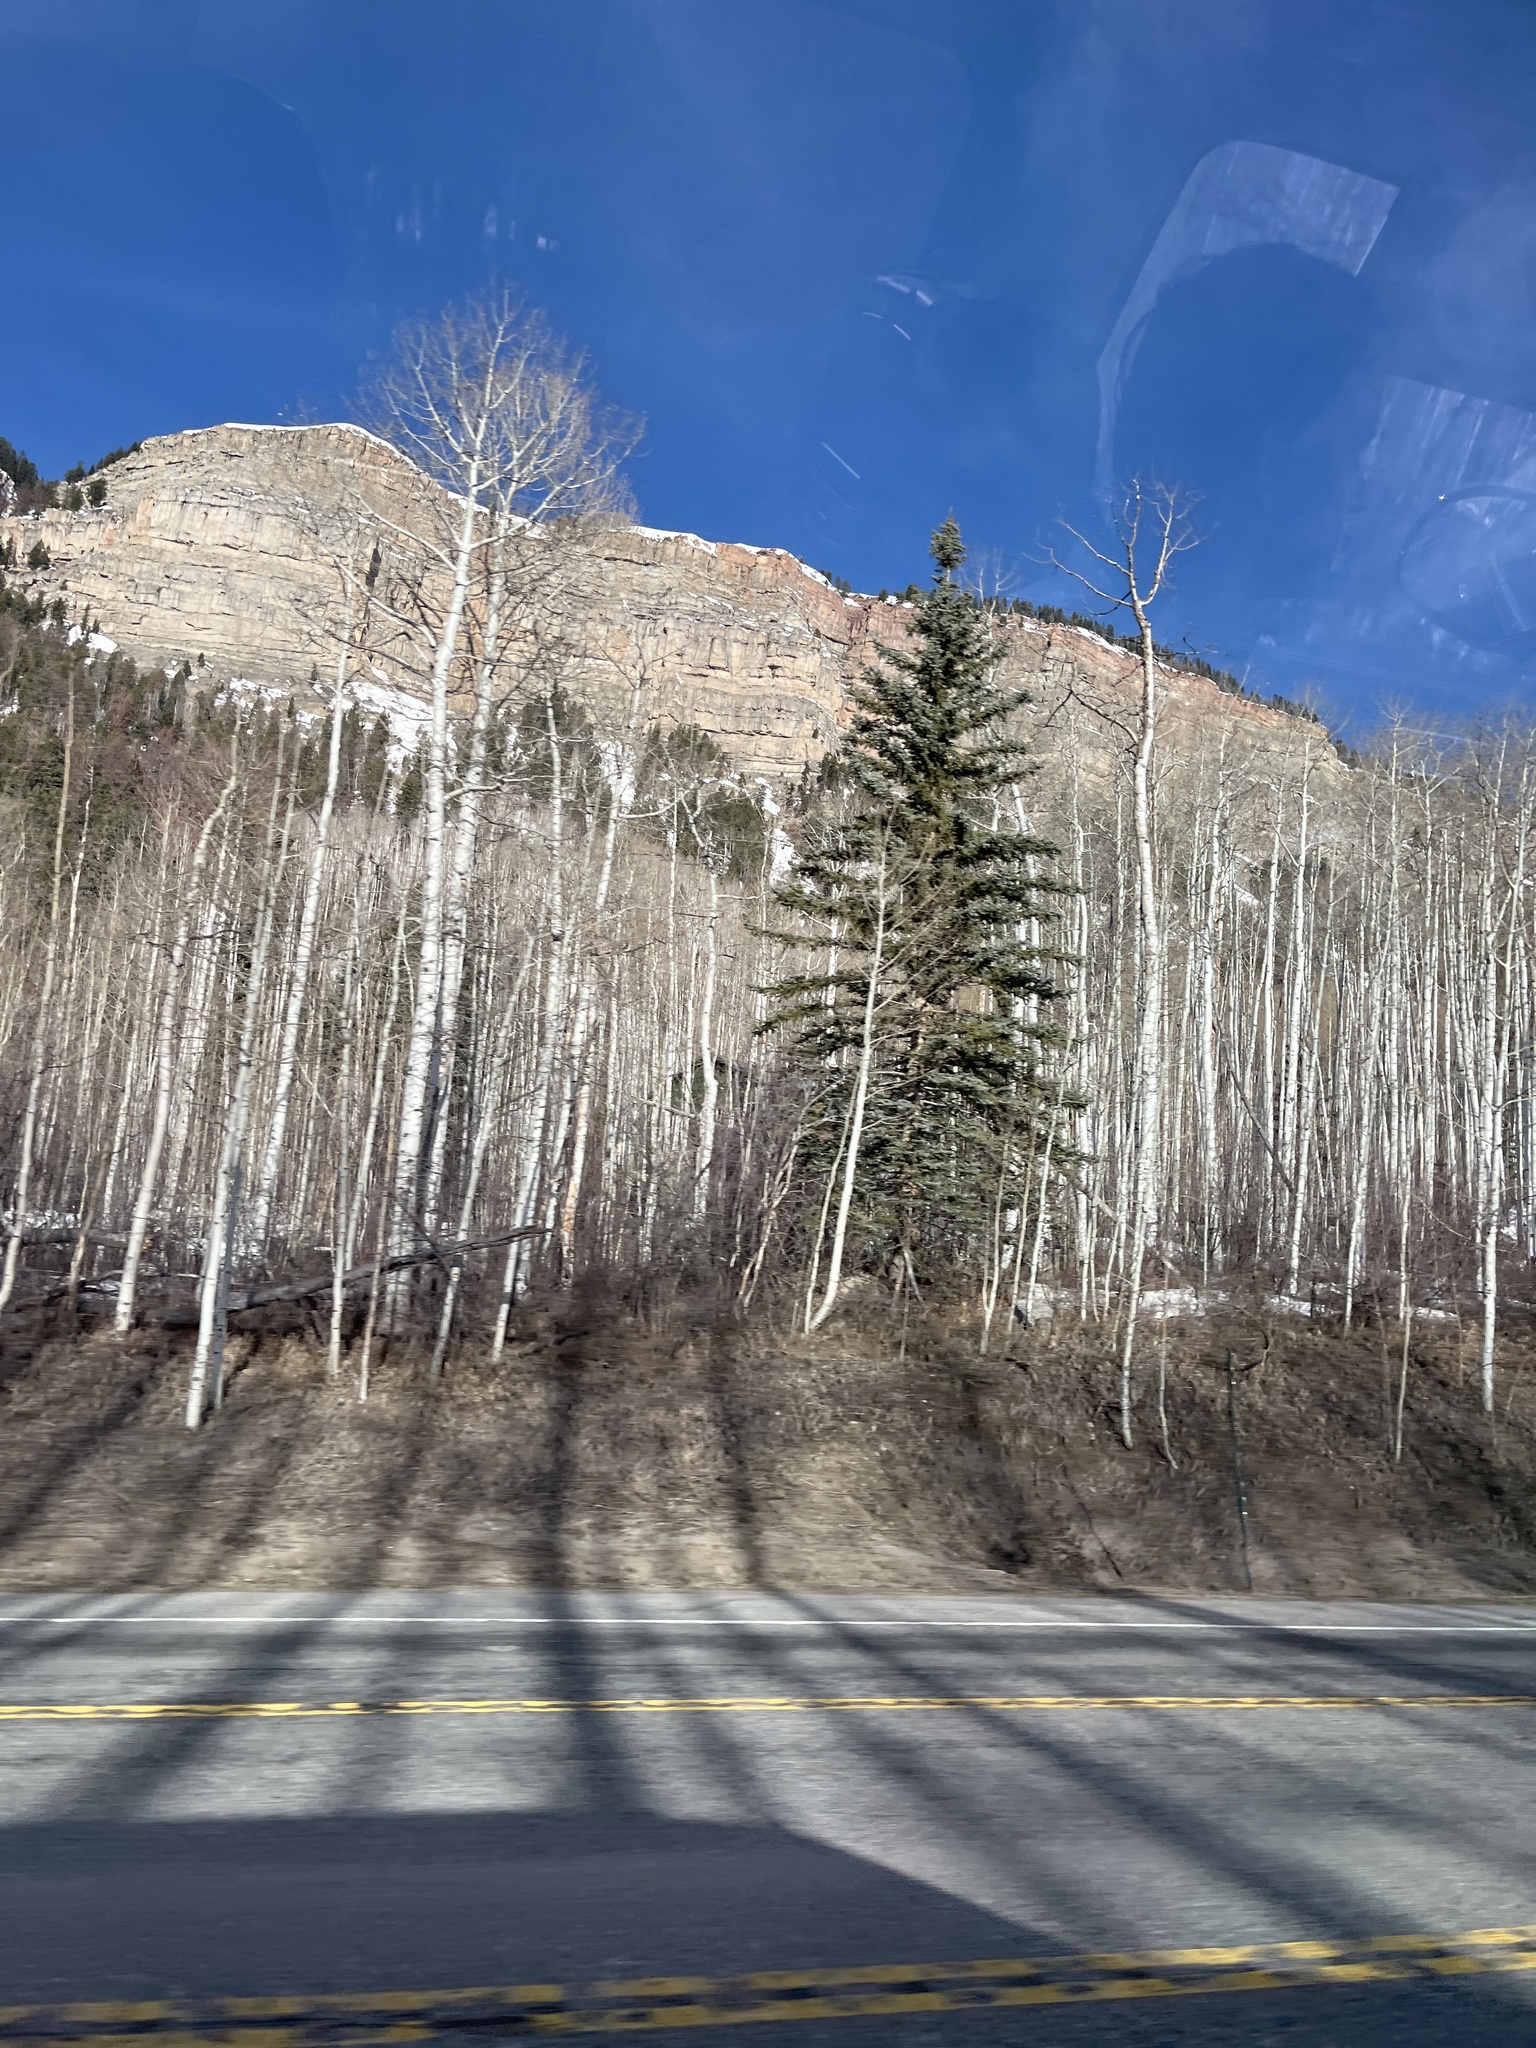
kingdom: Plantae
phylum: Tracheophyta
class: Magnoliopsida
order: Malpighiales
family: Salicaceae
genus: Populus
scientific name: Populus tremuloides
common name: Quaking aspen
